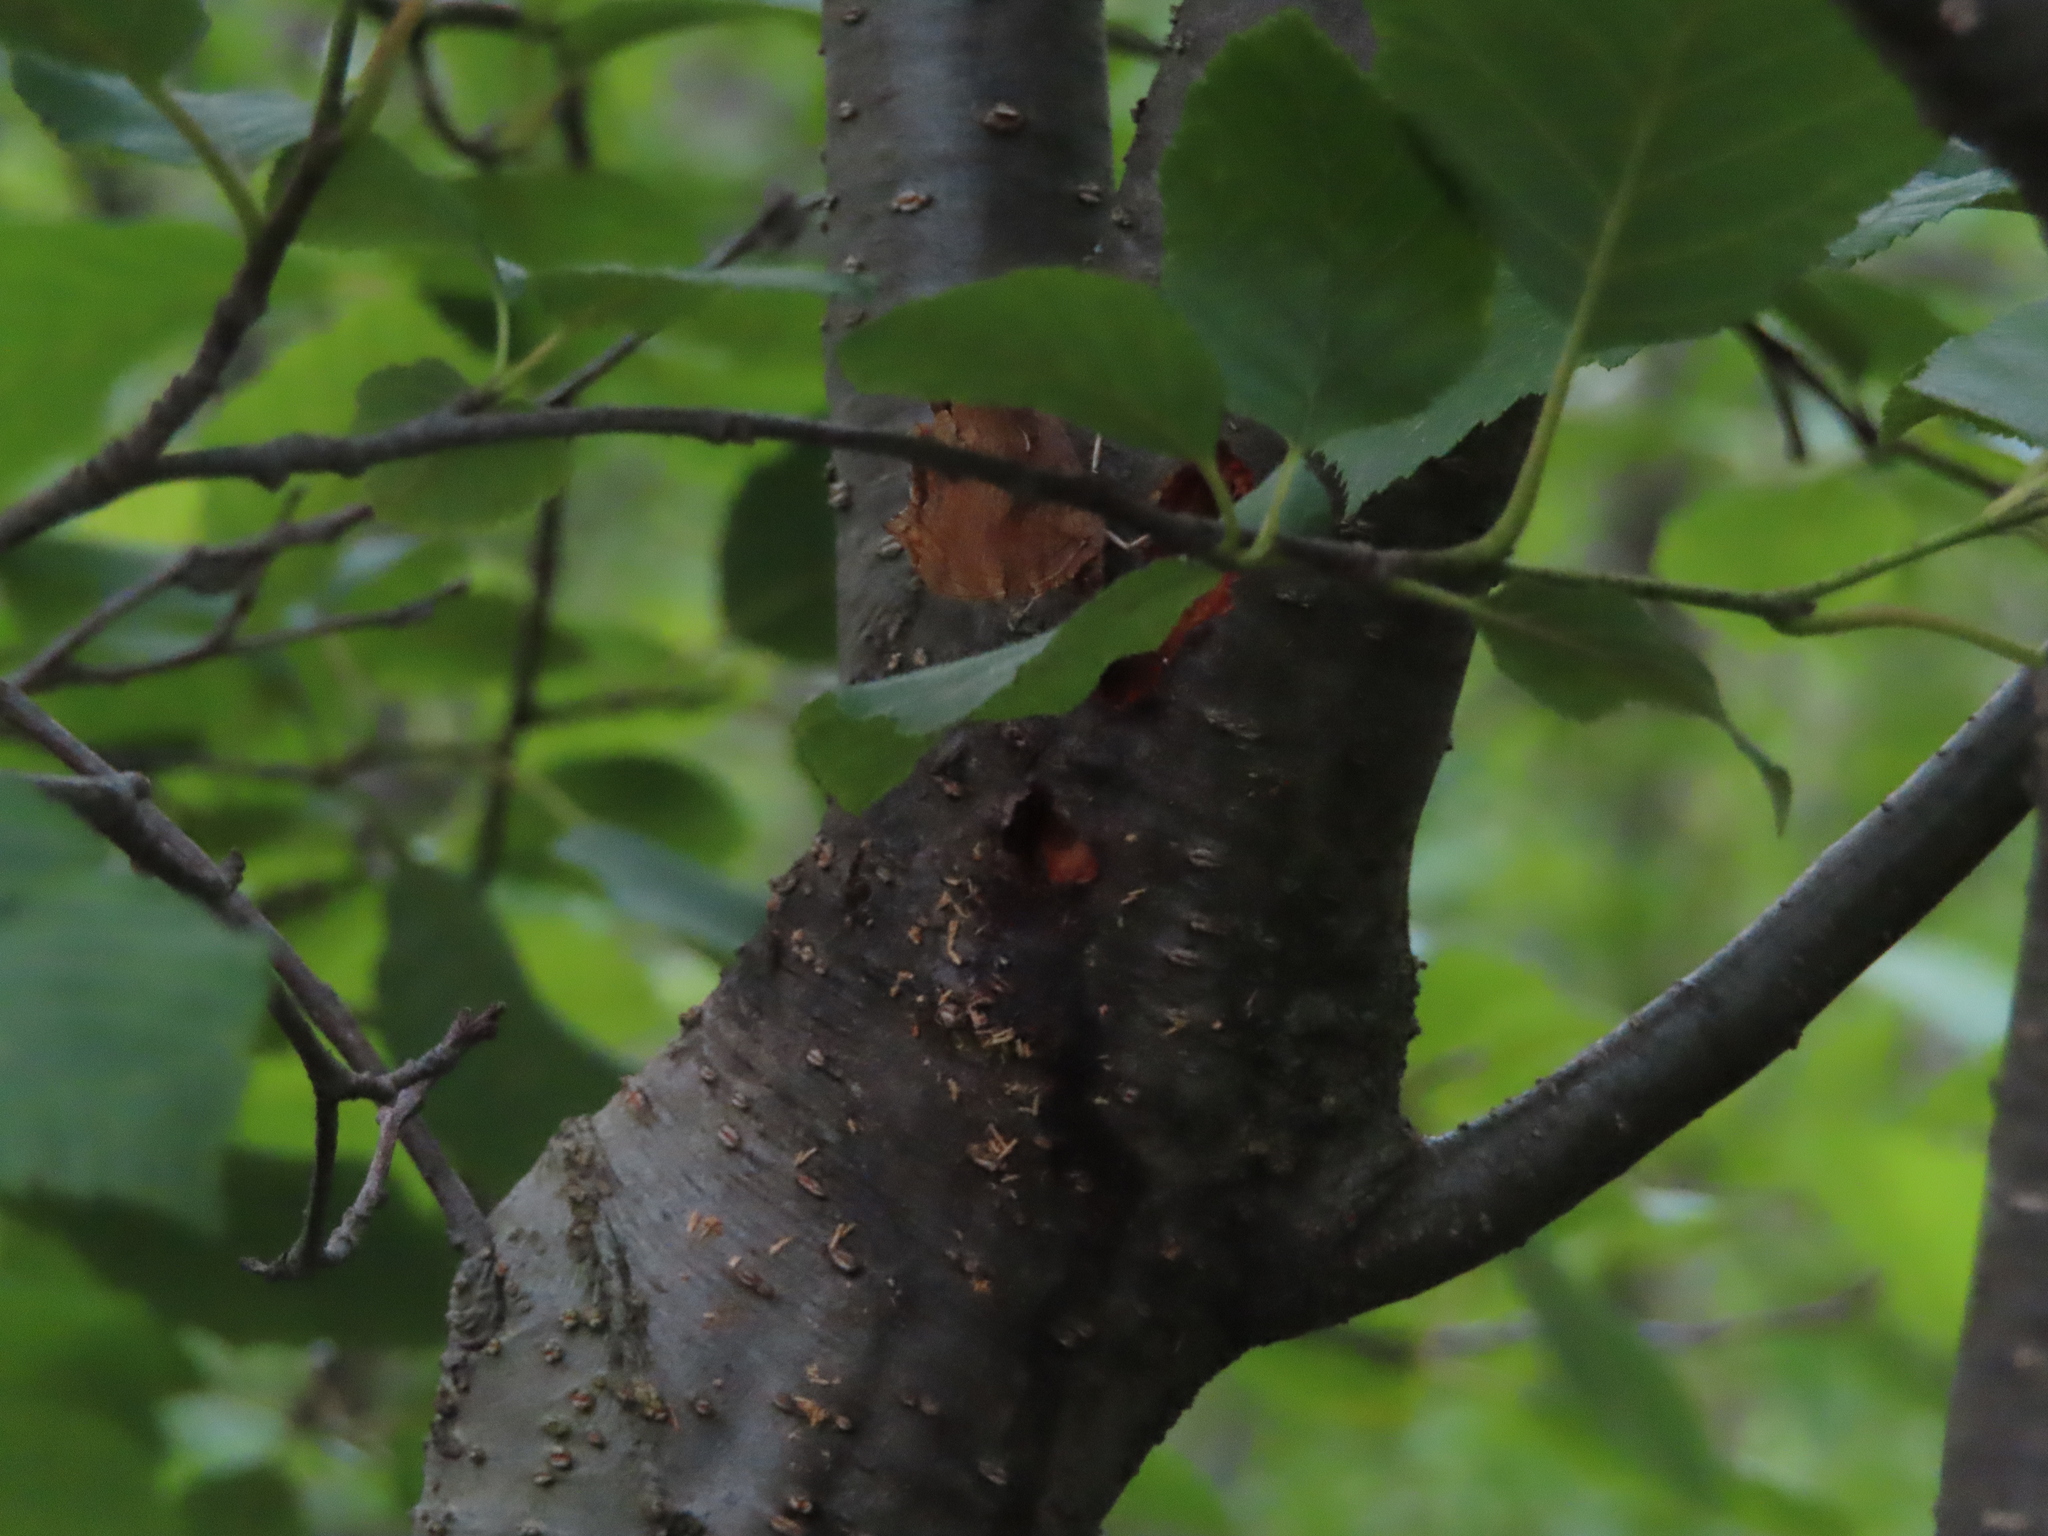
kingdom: Animalia
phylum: Arthropoda
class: Insecta
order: Lepidoptera
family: Nymphalidae
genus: Polygonia
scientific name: Polygonia comma
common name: Eastern comma
